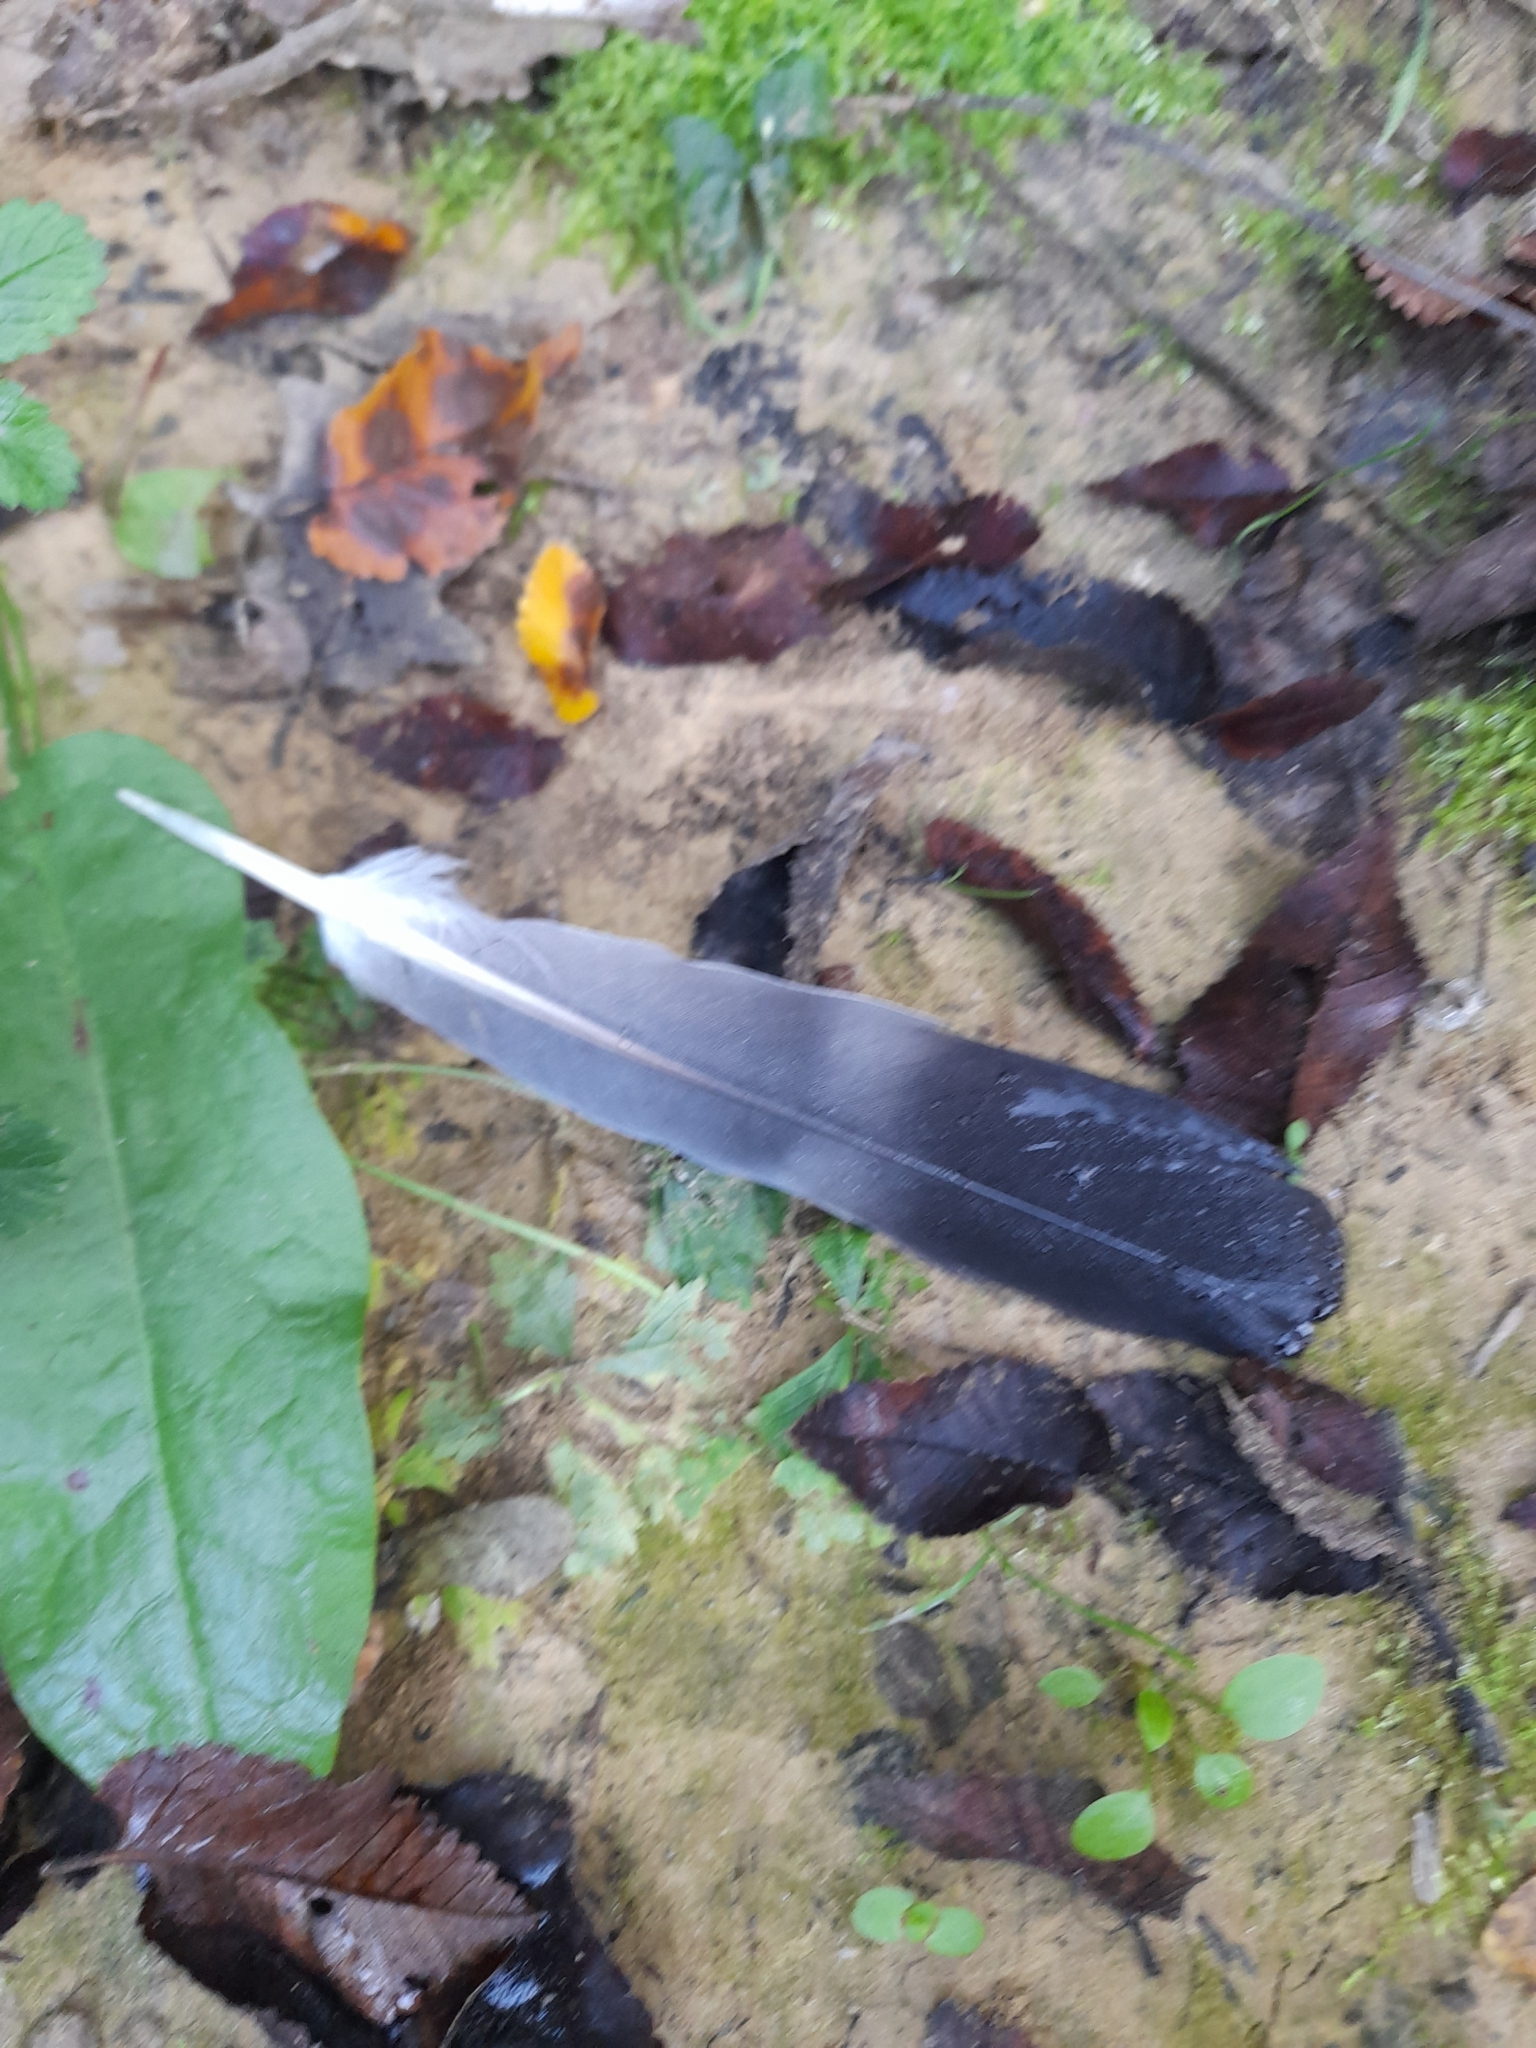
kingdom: Animalia
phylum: Chordata
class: Aves
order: Columbiformes
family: Columbidae
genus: Columba
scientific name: Columba palumbus
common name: Common wood pigeon
